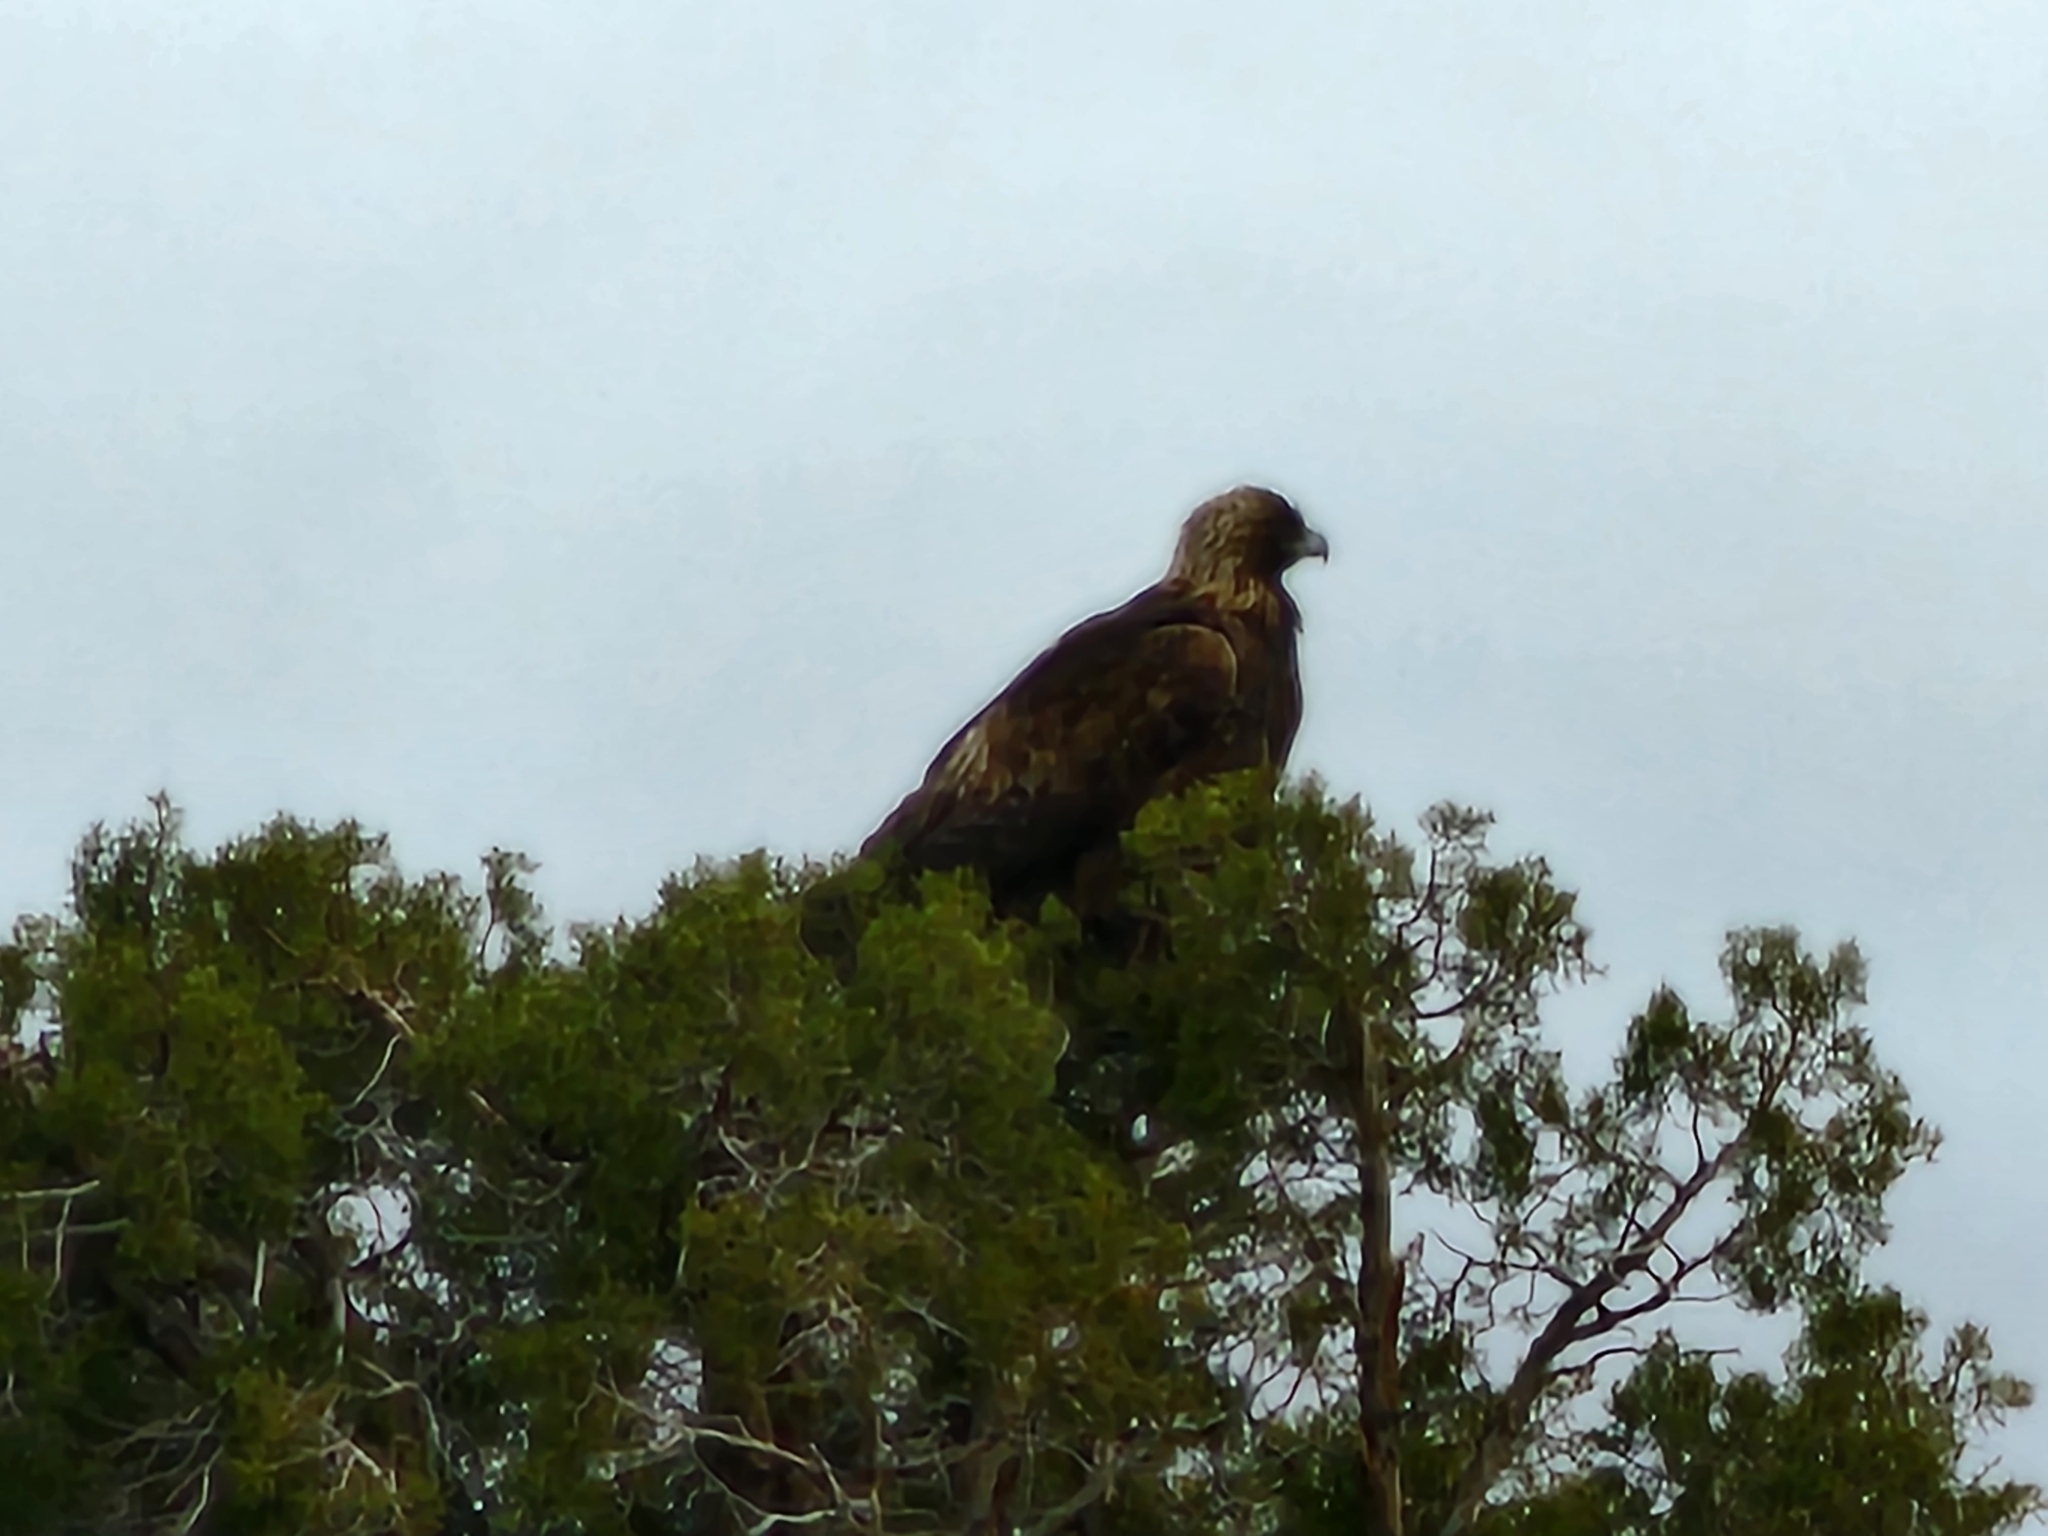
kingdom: Animalia
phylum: Chordata
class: Aves
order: Accipitriformes
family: Accipitridae
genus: Aquila
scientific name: Aquila chrysaetos
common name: Golden eagle
